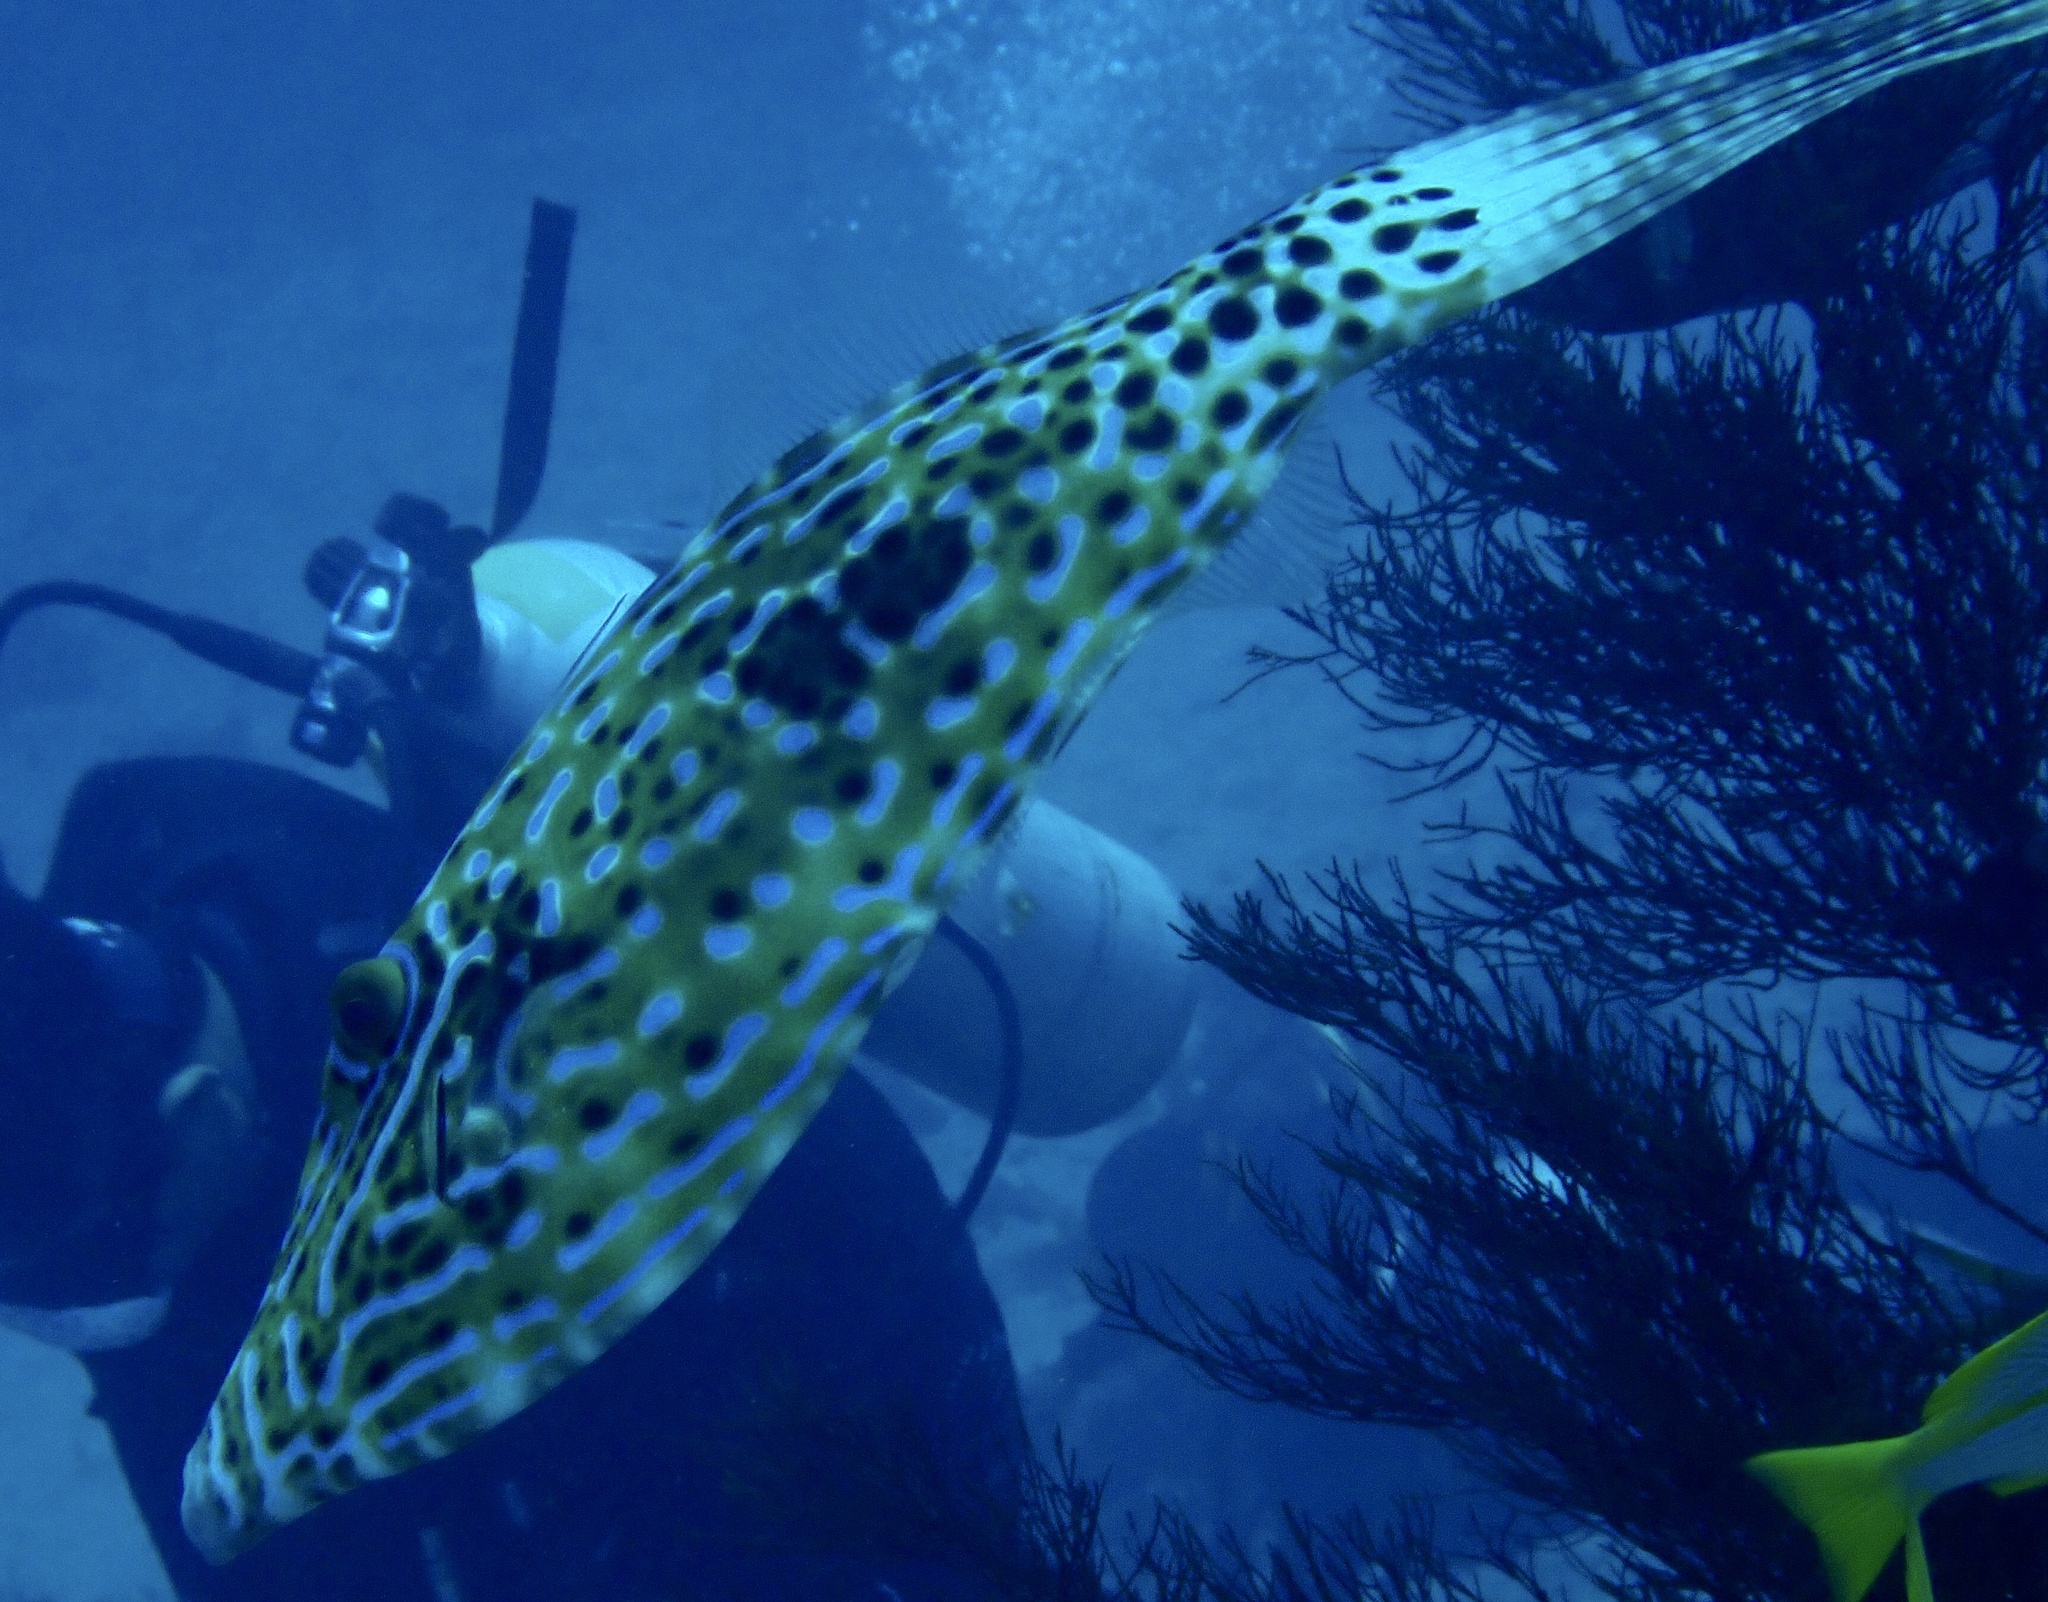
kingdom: Animalia
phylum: Chordata
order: Tetraodontiformes
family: Monacanthidae
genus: Aluterus
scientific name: Aluterus scriptus
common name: Scribbled leatherjacket filefish
